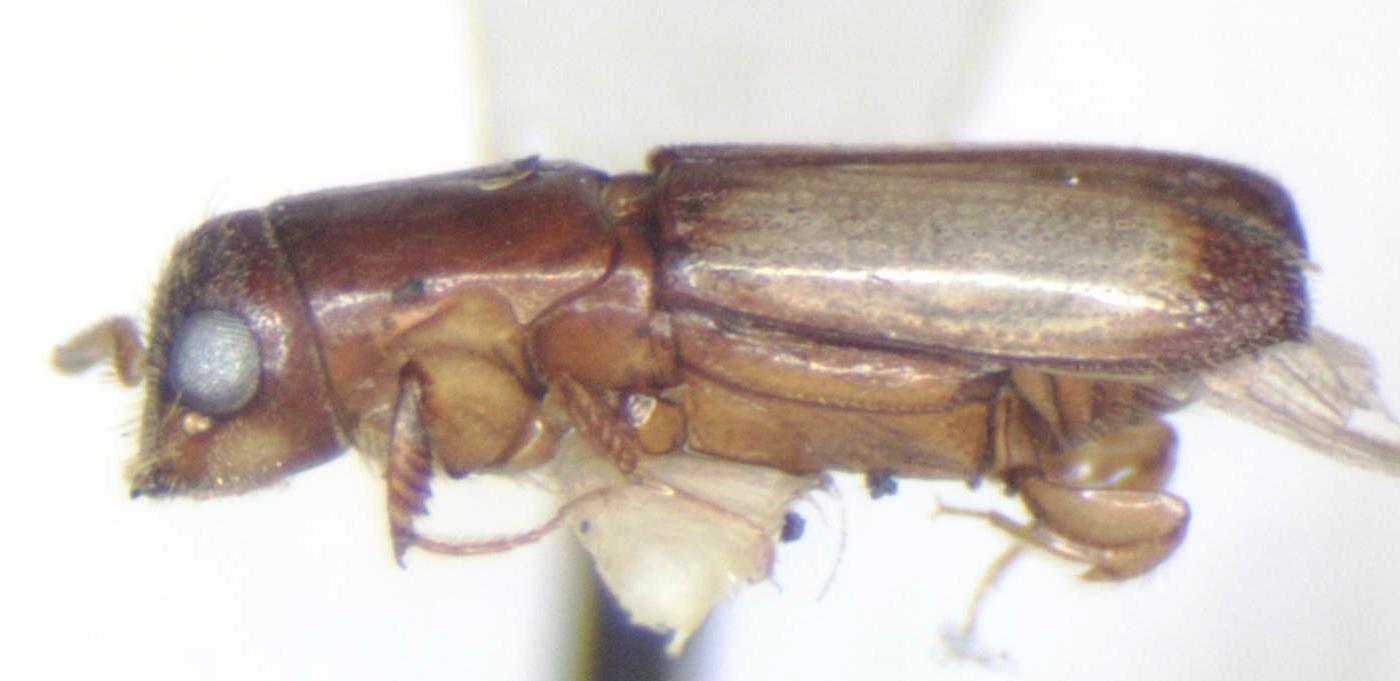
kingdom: Animalia
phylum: Arthropoda
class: Insecta
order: Coleoptera
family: Curculionidae
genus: Teloplatypus
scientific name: Teloplatypus ratzeburgi
